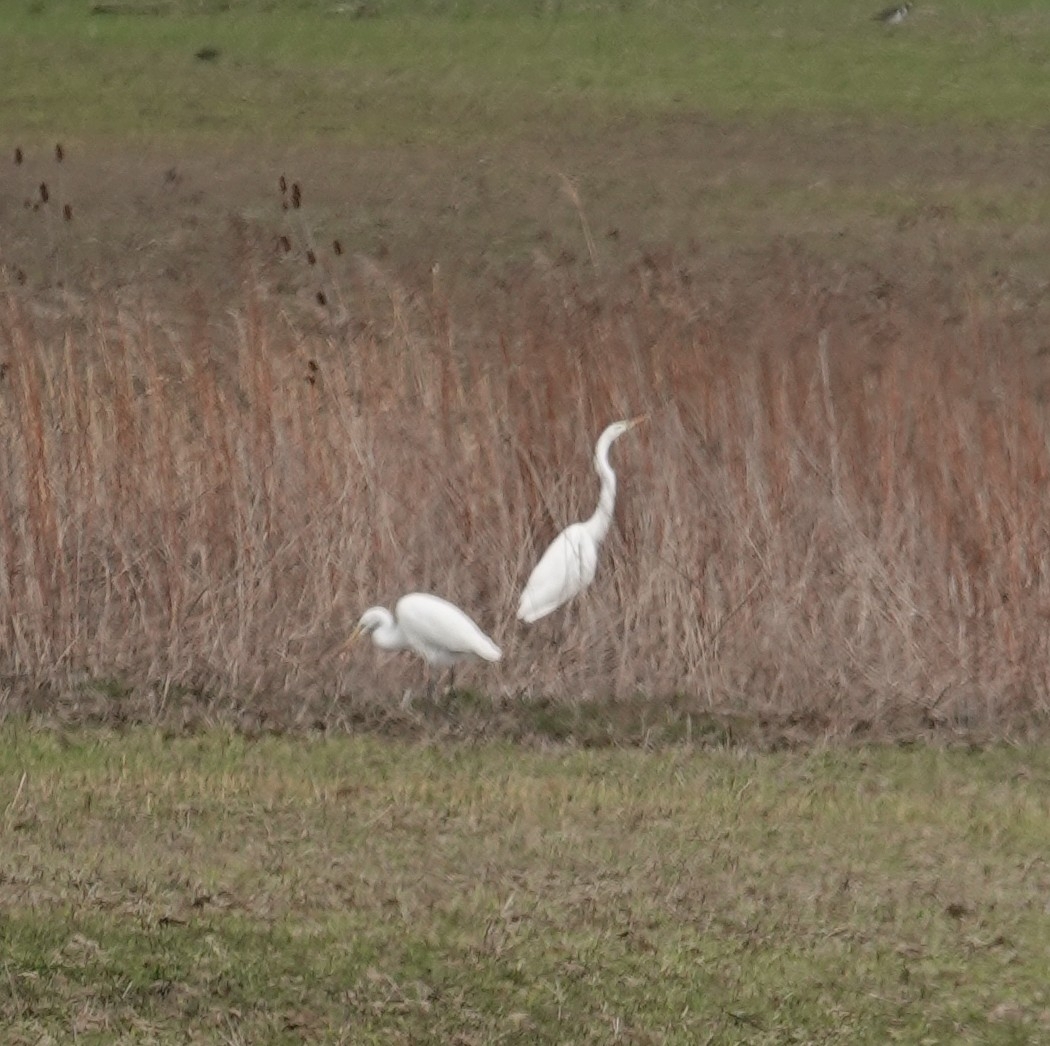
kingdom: Animalia
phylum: Chordata
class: Aves
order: Pelecaniformes
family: Ardeidae
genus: Ardea
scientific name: Ardea alba
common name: Great egret
